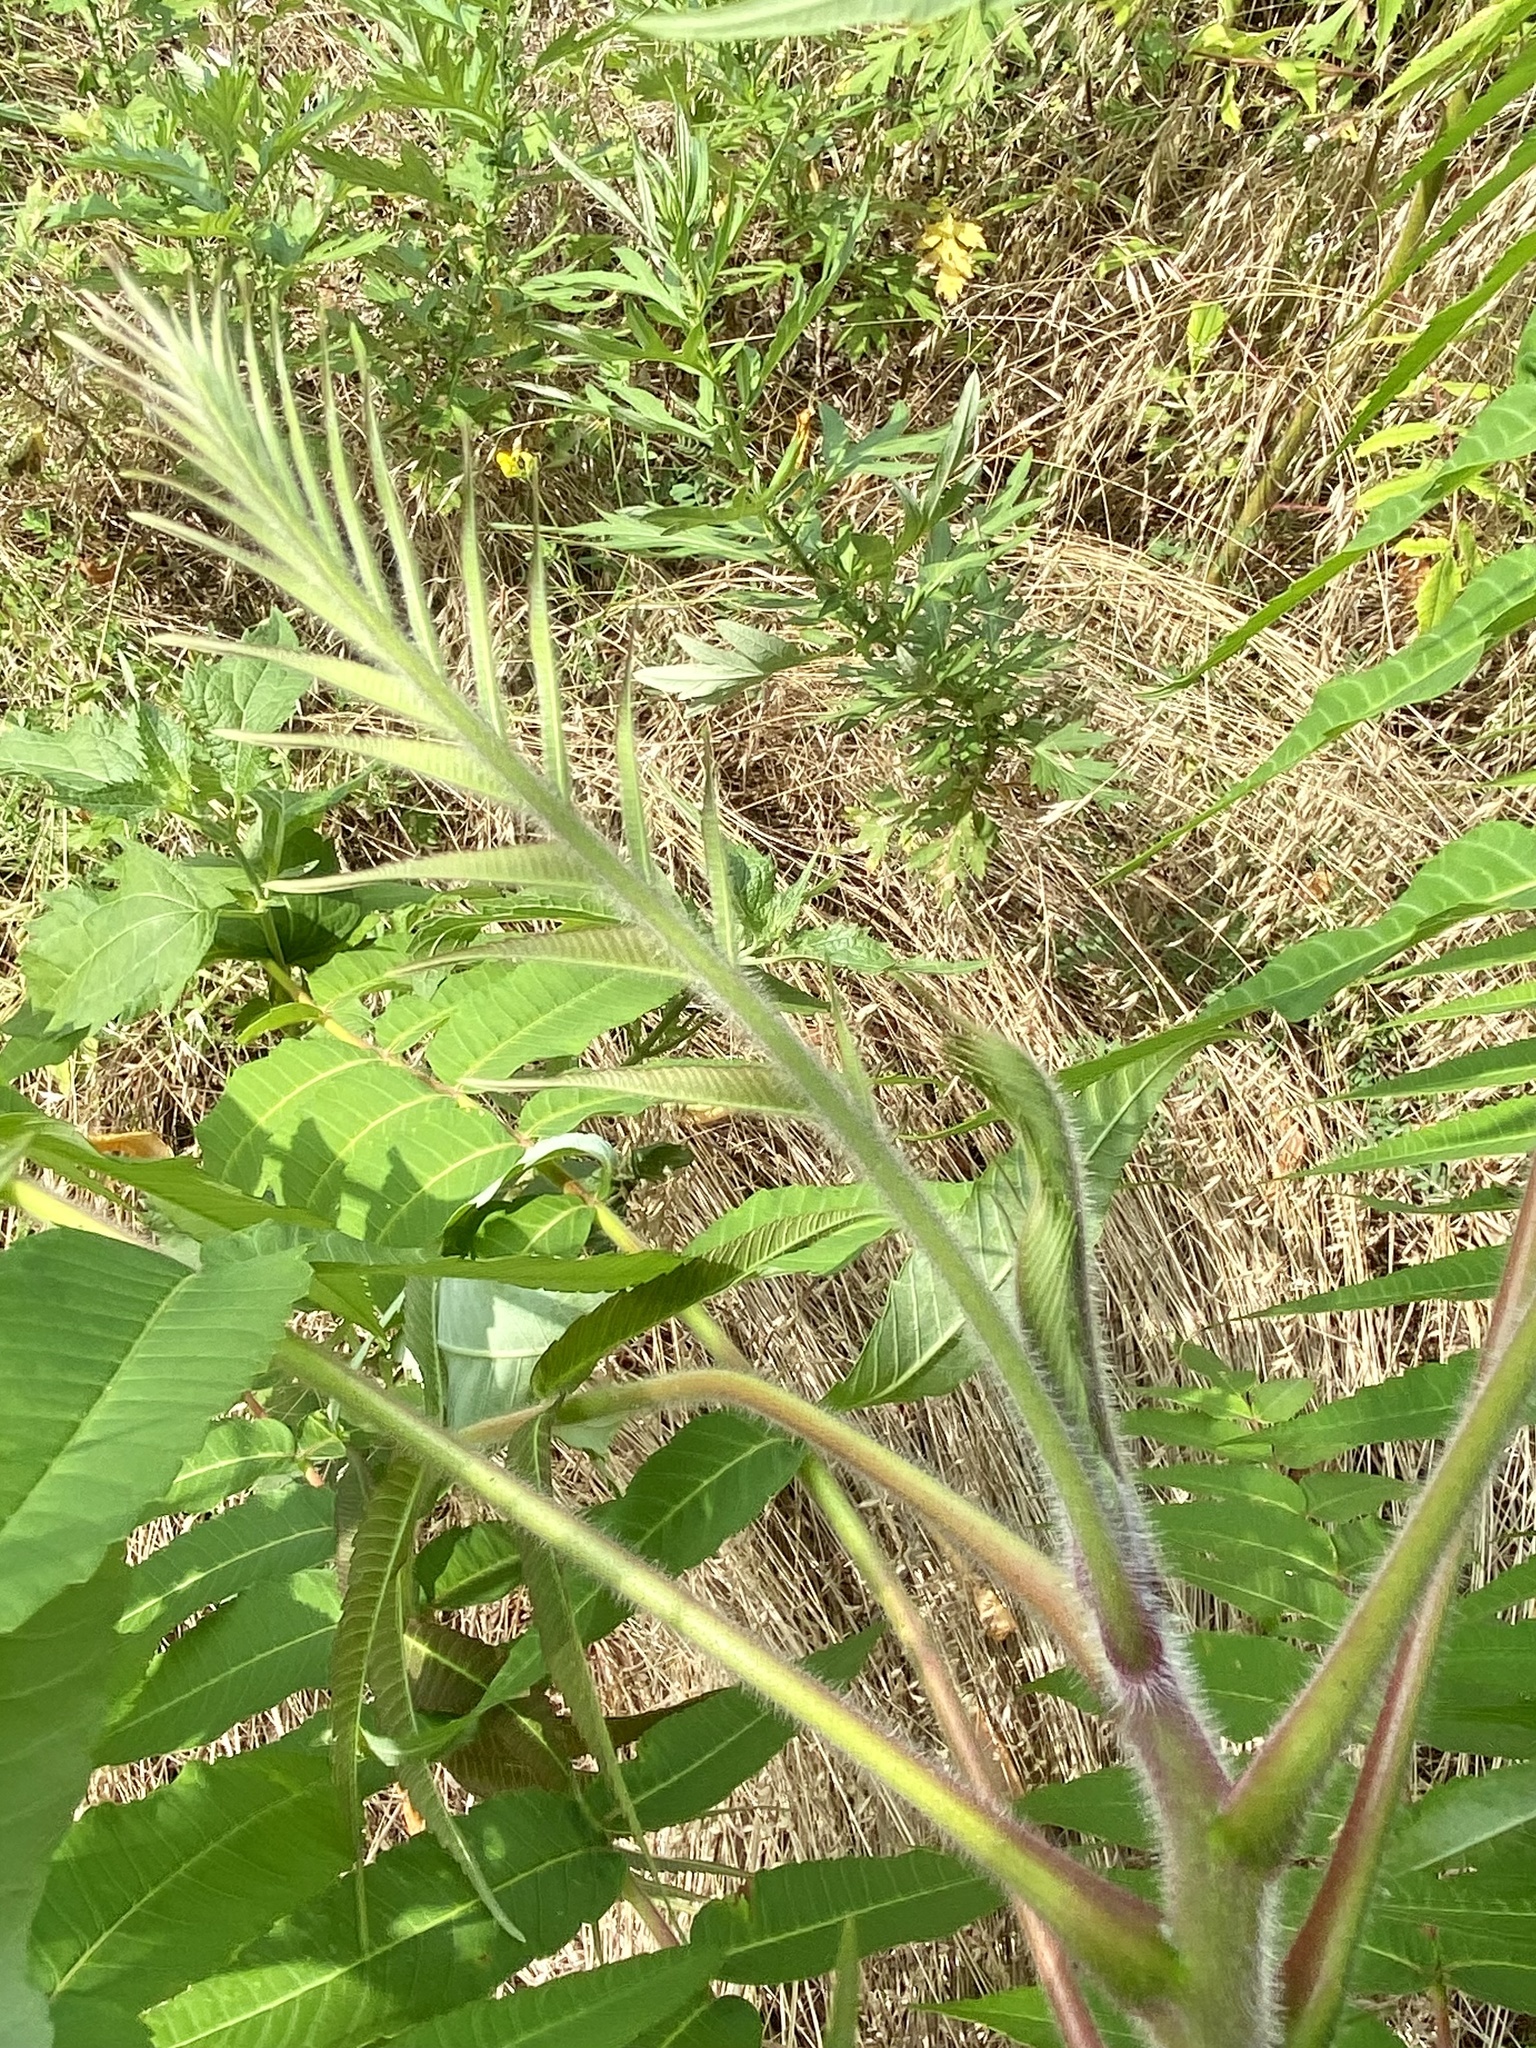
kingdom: Plantae
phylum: Tracheophyta
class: Magnoliopsida
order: Sapindales
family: Anacardiaceae
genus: Rhus
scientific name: Rhus typhina
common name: Staghorn sumac
